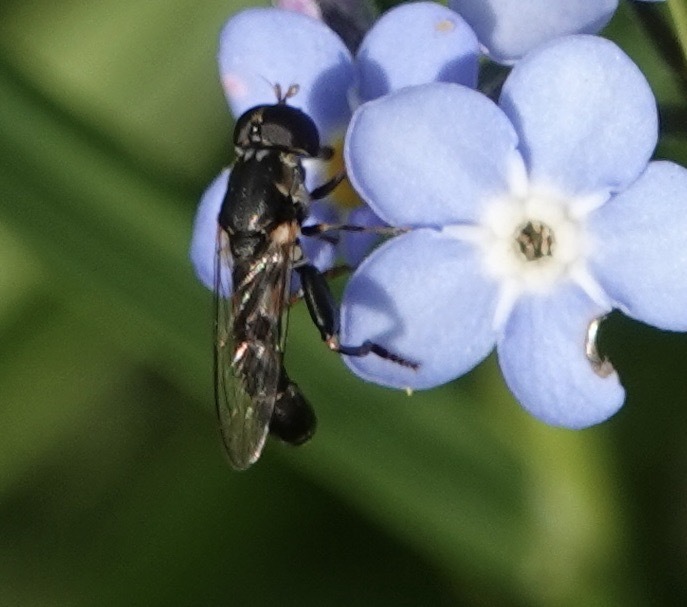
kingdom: Animalia
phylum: Arthropoda
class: Insecta
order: Diptera
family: Syrphidae
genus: Syritta
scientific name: Syritta pipiens
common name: Hover fly
